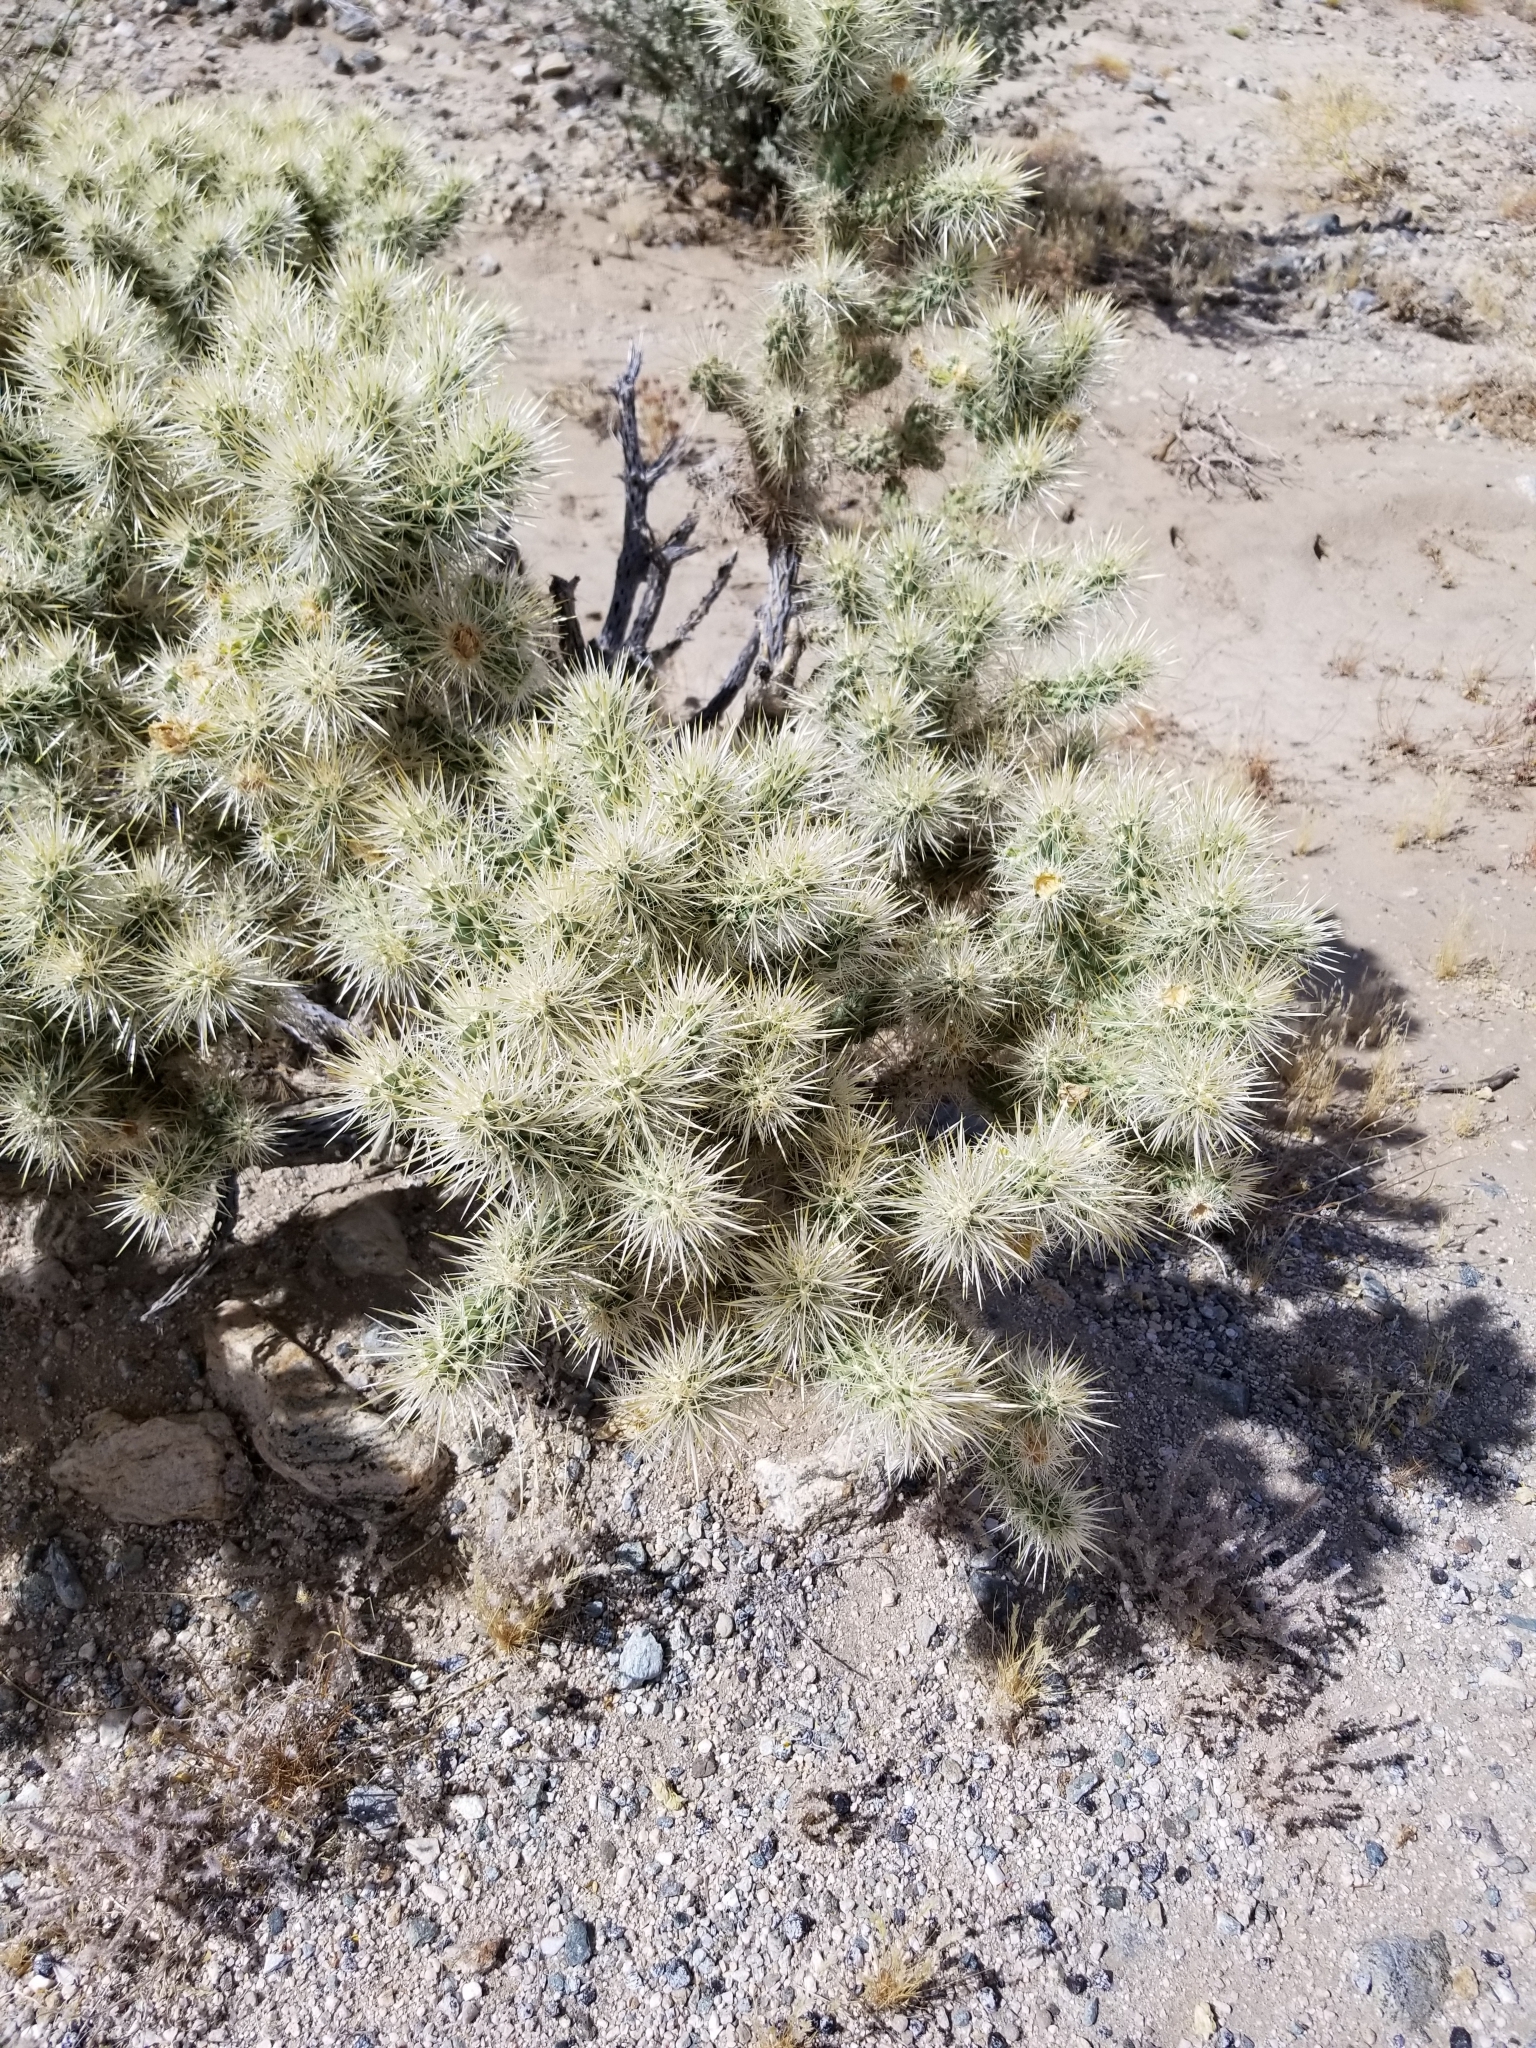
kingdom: Plantae
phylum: Tracheophyta
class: Magnoliopsida
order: Caryophyllales
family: Cactaceae
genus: Cylindropuntia
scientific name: Cylindropuntia echinocarpa
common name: Ground cholla
